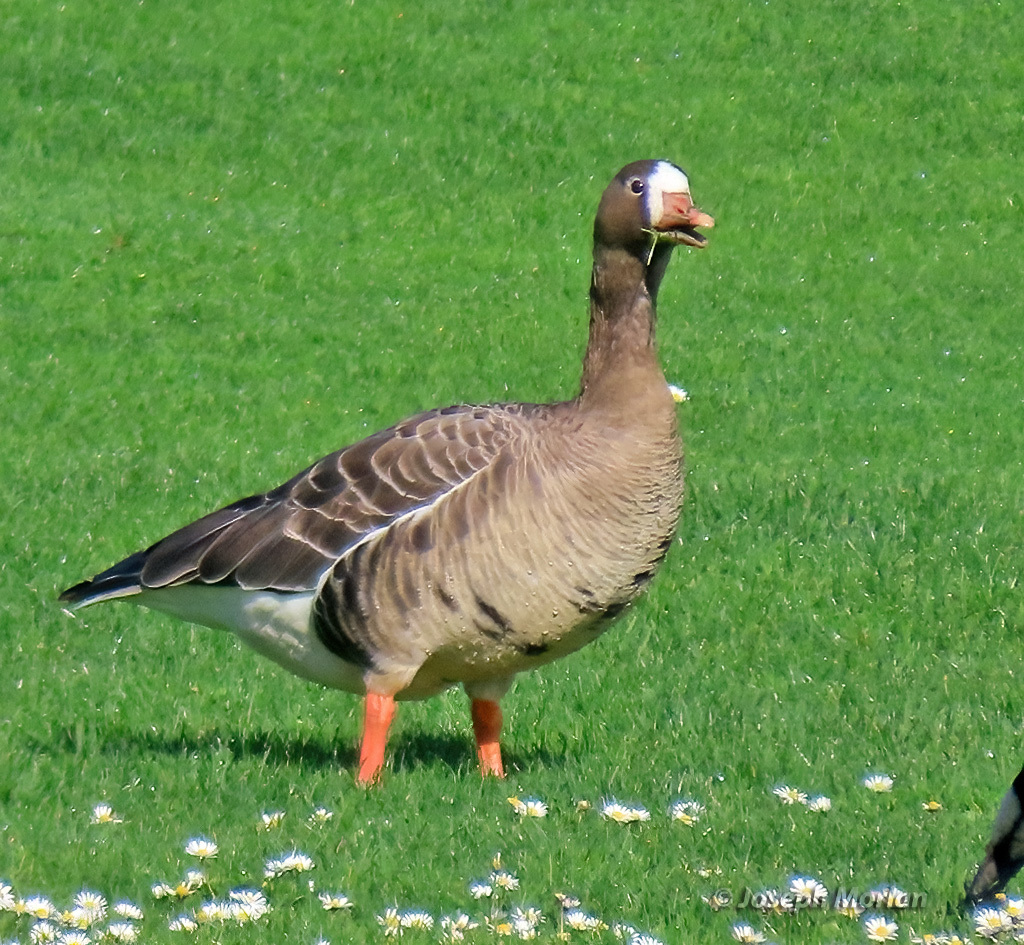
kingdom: Animalia
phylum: Chordata
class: Aves
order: Anseriformes
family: Anatidae
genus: Anser
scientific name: Anser albifrons
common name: Greater white-fronted goose
